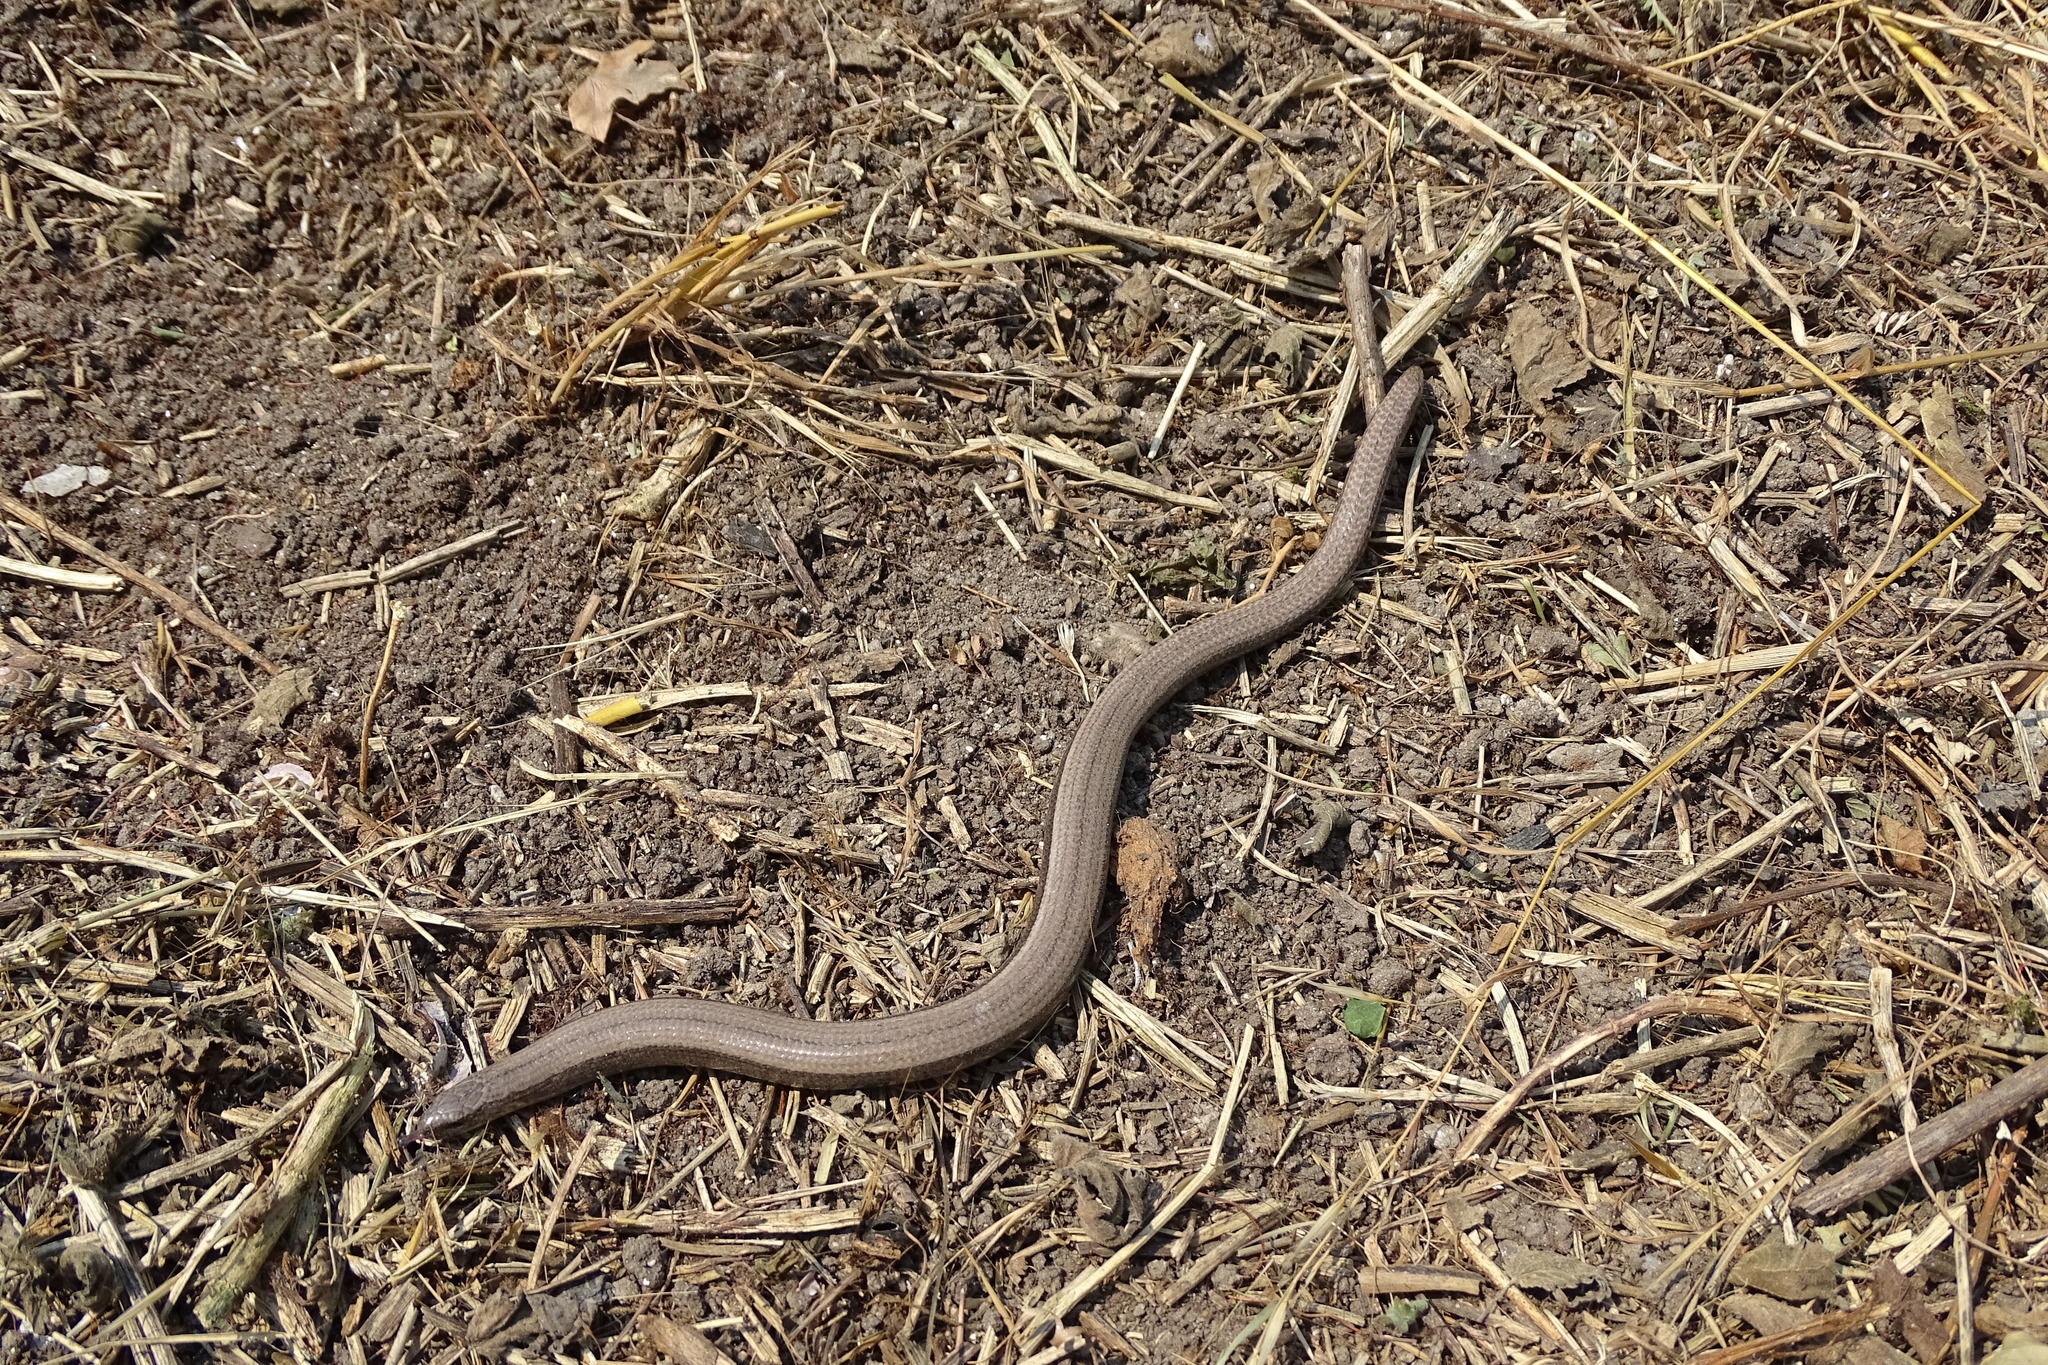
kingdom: Animalia
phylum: Chordata
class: Squamata
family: Anguidae
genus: Anguis
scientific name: Anguis fragilis
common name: Slow worm
